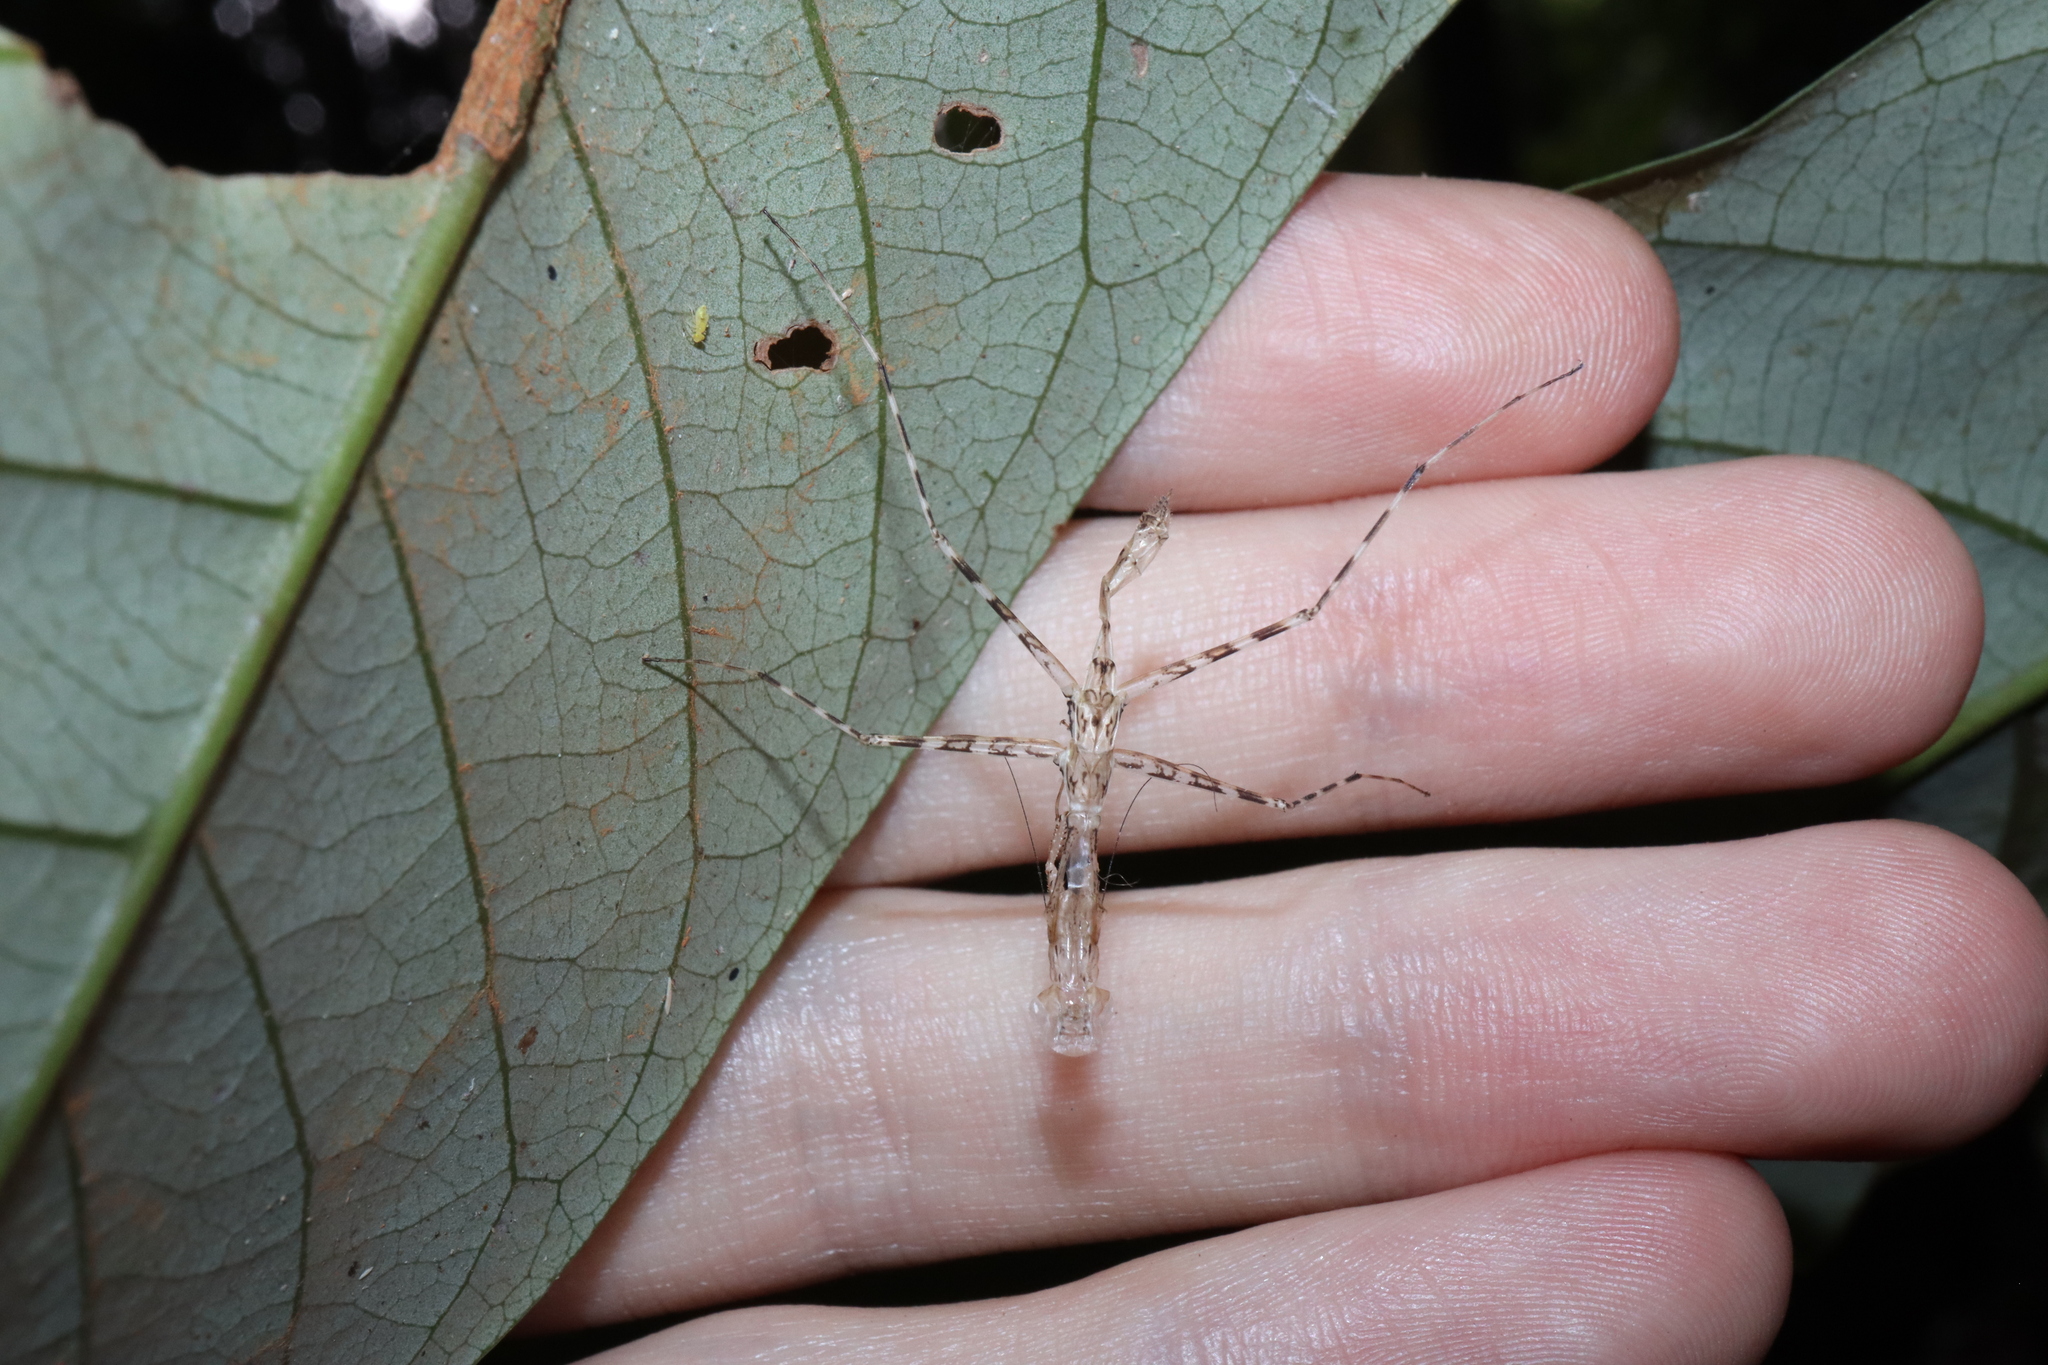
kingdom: Animalia
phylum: Arthropoda
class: Insecta
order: Mantodea
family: Nanomantidae
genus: Ciulfina
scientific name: Ciulfina rentzi
